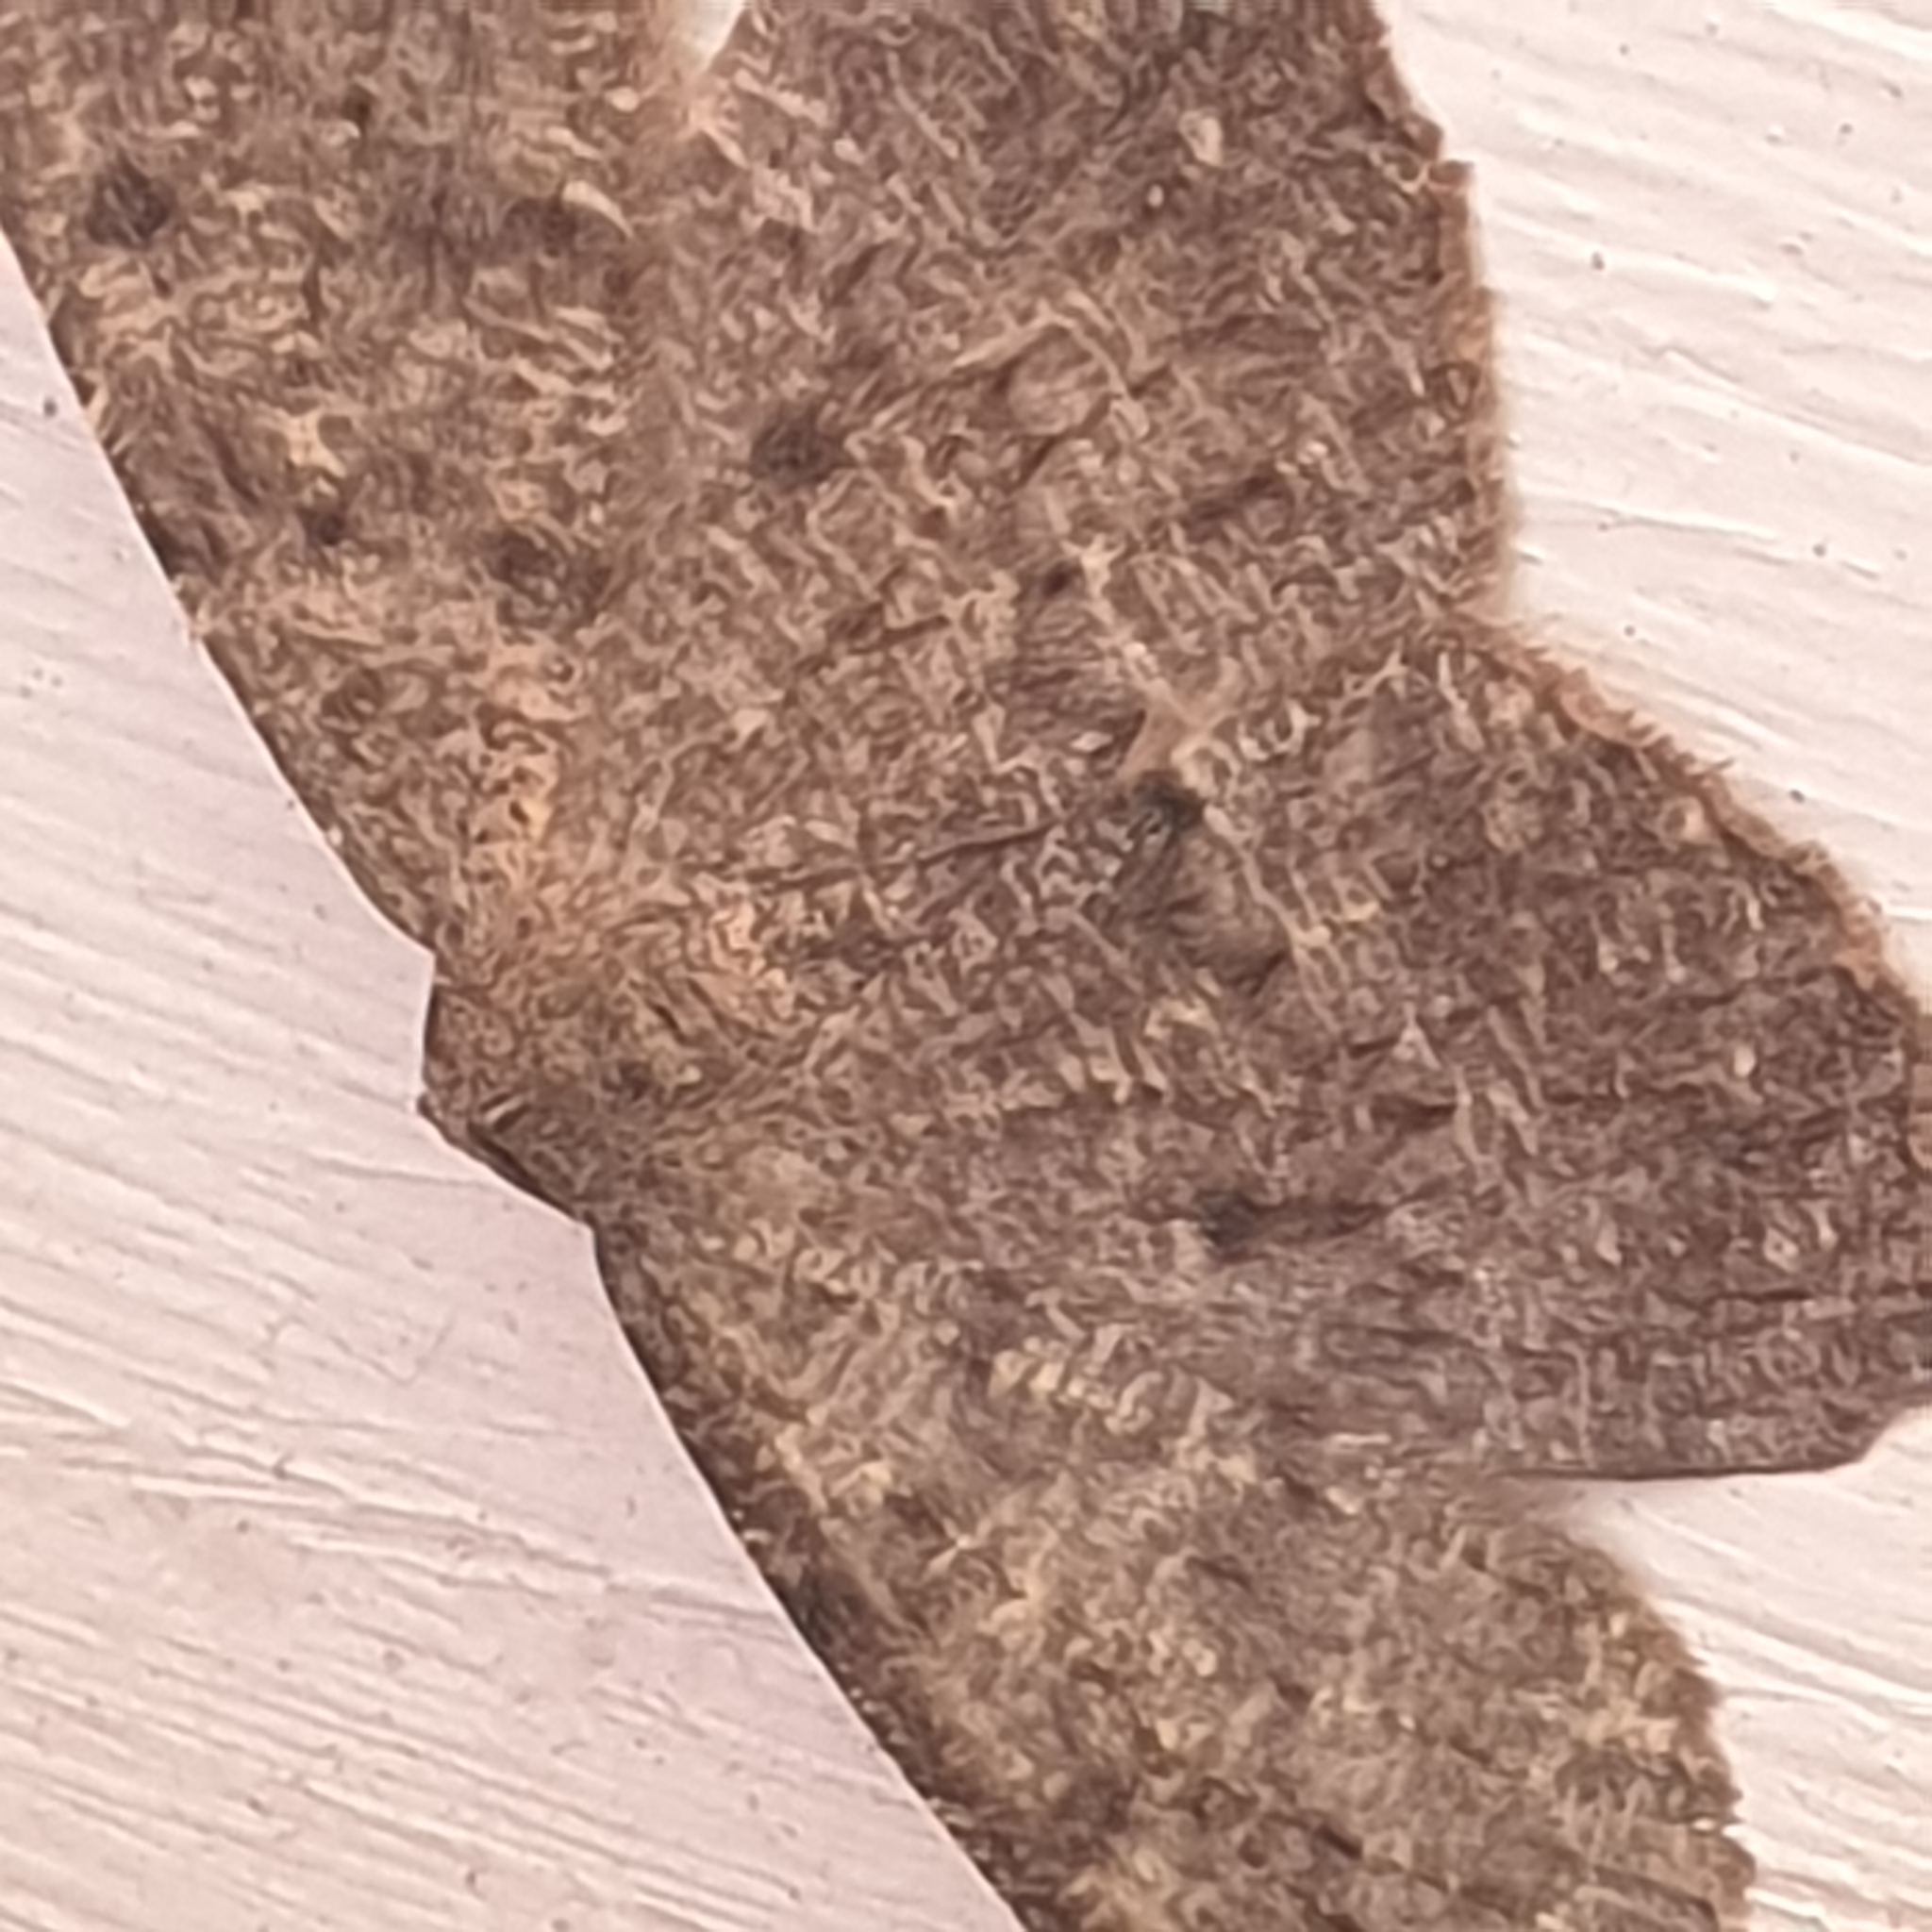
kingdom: Animalia
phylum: Arthropoda
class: Insecta
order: Lepidoptera
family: Geometridae
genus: Gnophos
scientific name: Gnophos obfuscata
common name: Scottish annulet
